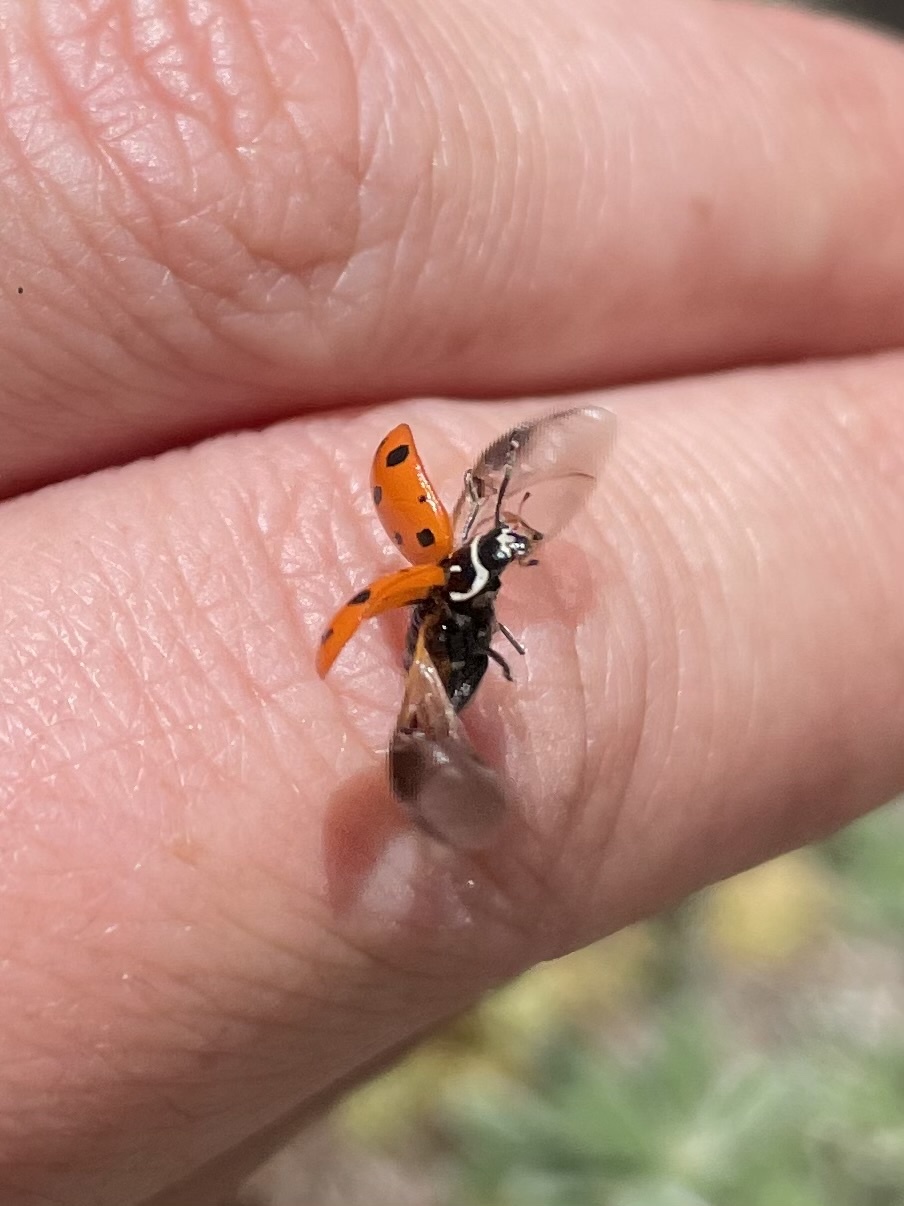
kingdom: Animalia
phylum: Arthropoda
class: Insecta
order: Coleoptera
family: Coccinellidae
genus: Hippodamia
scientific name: Hippodamia convergens
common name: Convergent lady beetle
